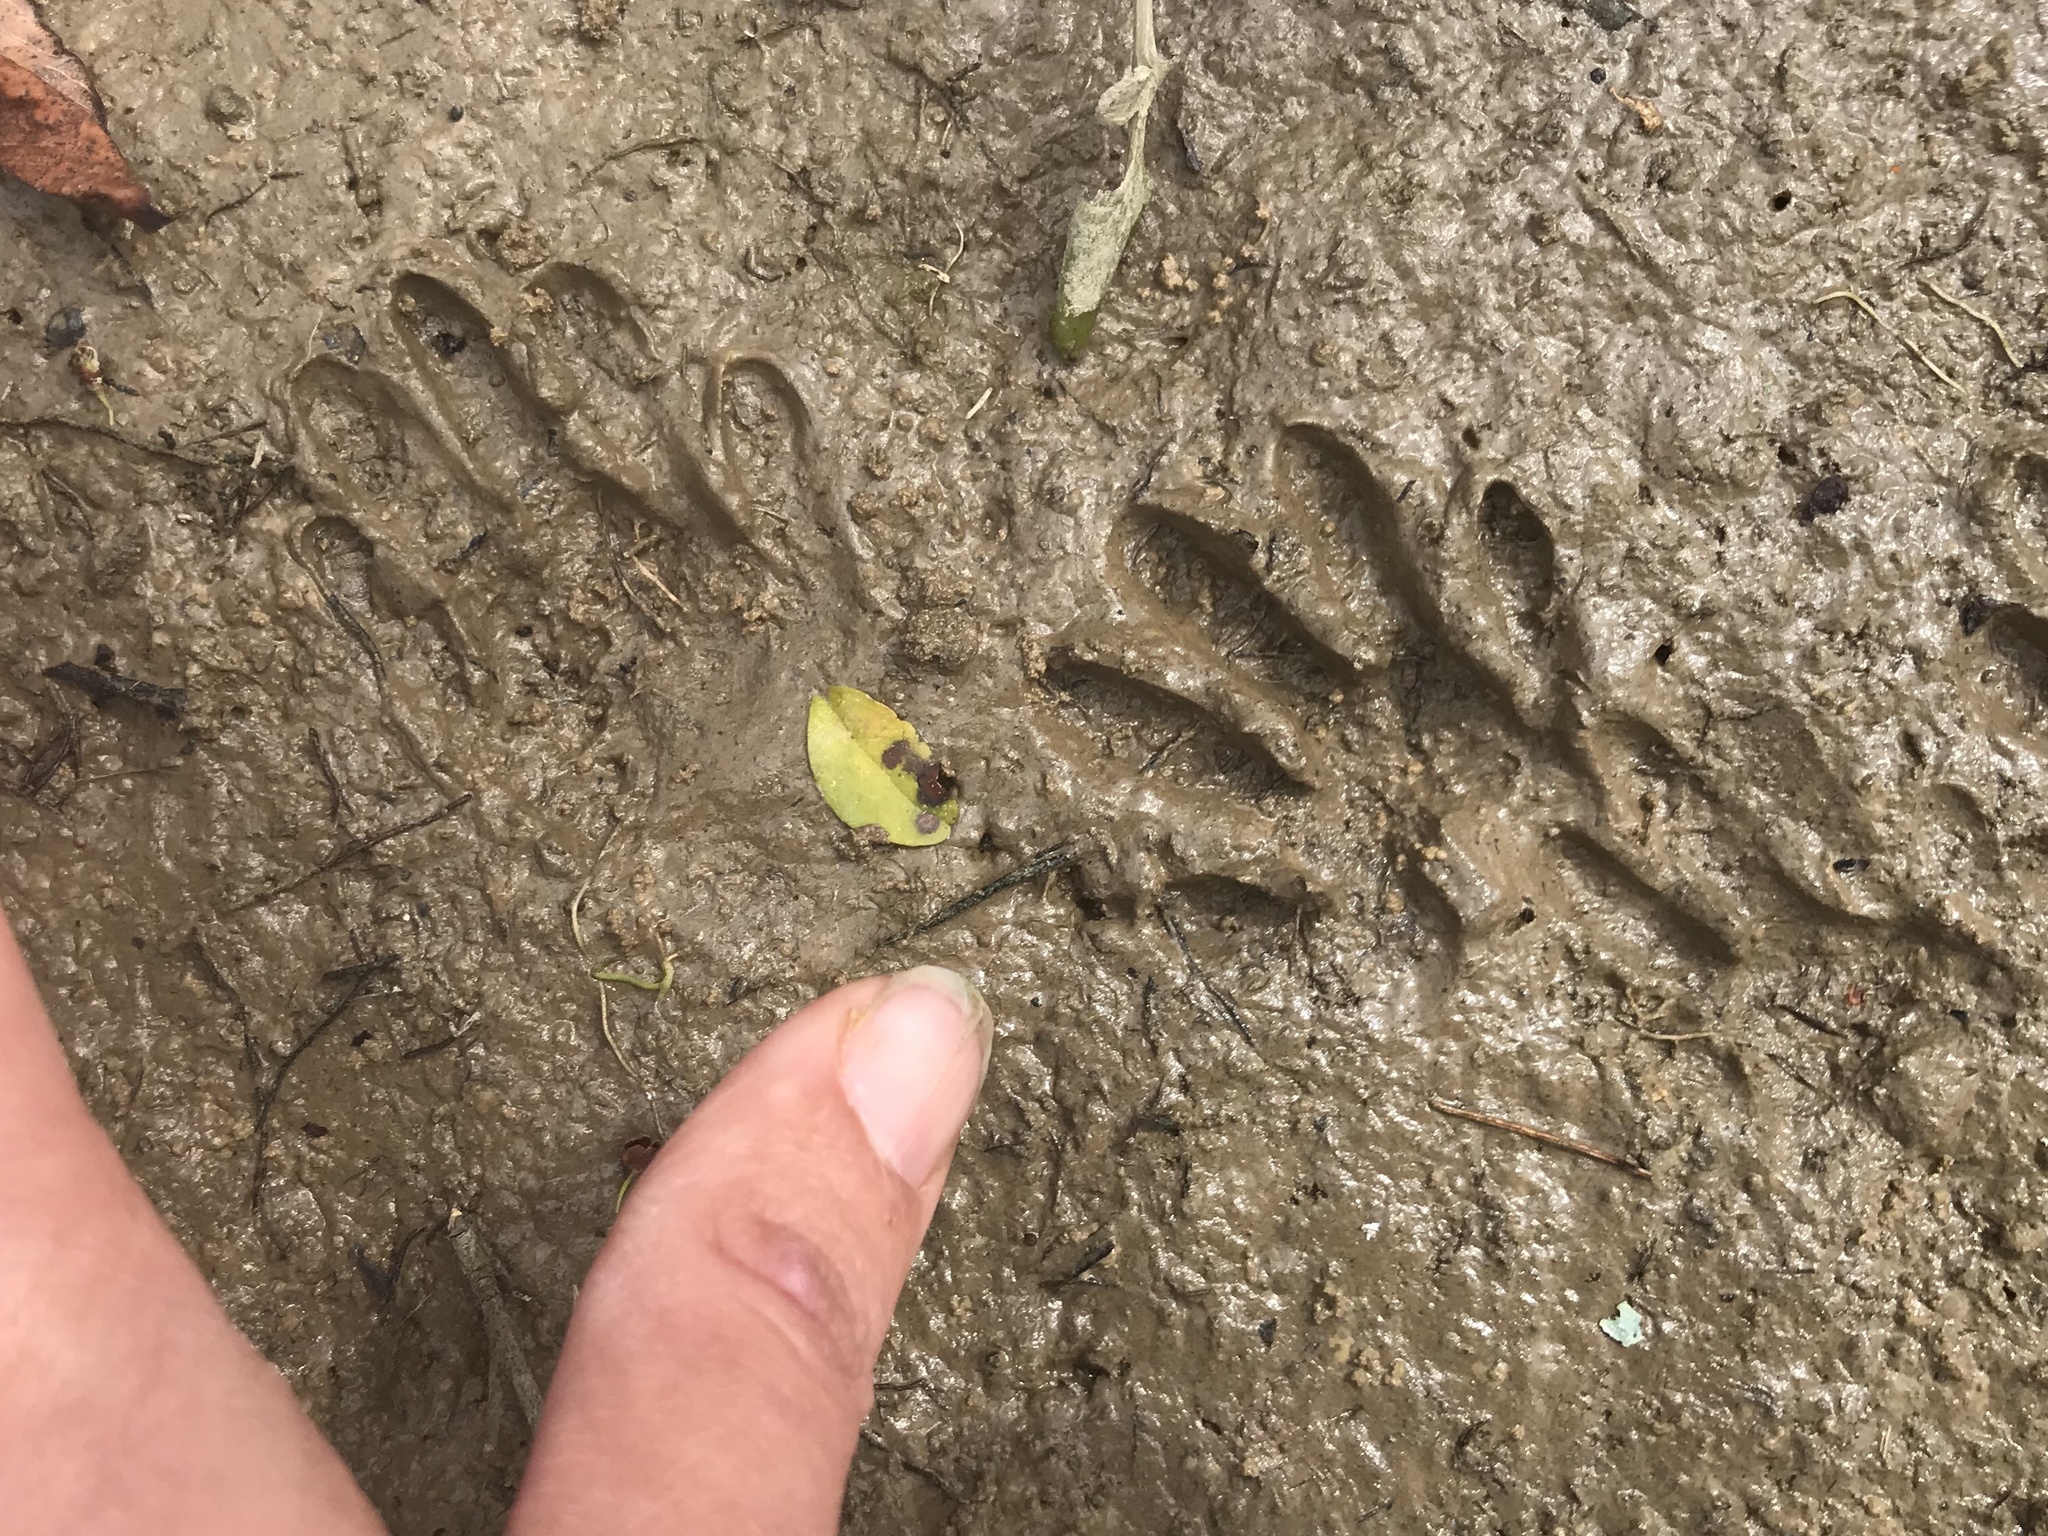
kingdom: Animalia
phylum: Chordata
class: Mammalia
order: Carnivora
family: Procyonidae
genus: Procyon
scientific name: Procyon lotor
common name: Raccoon
